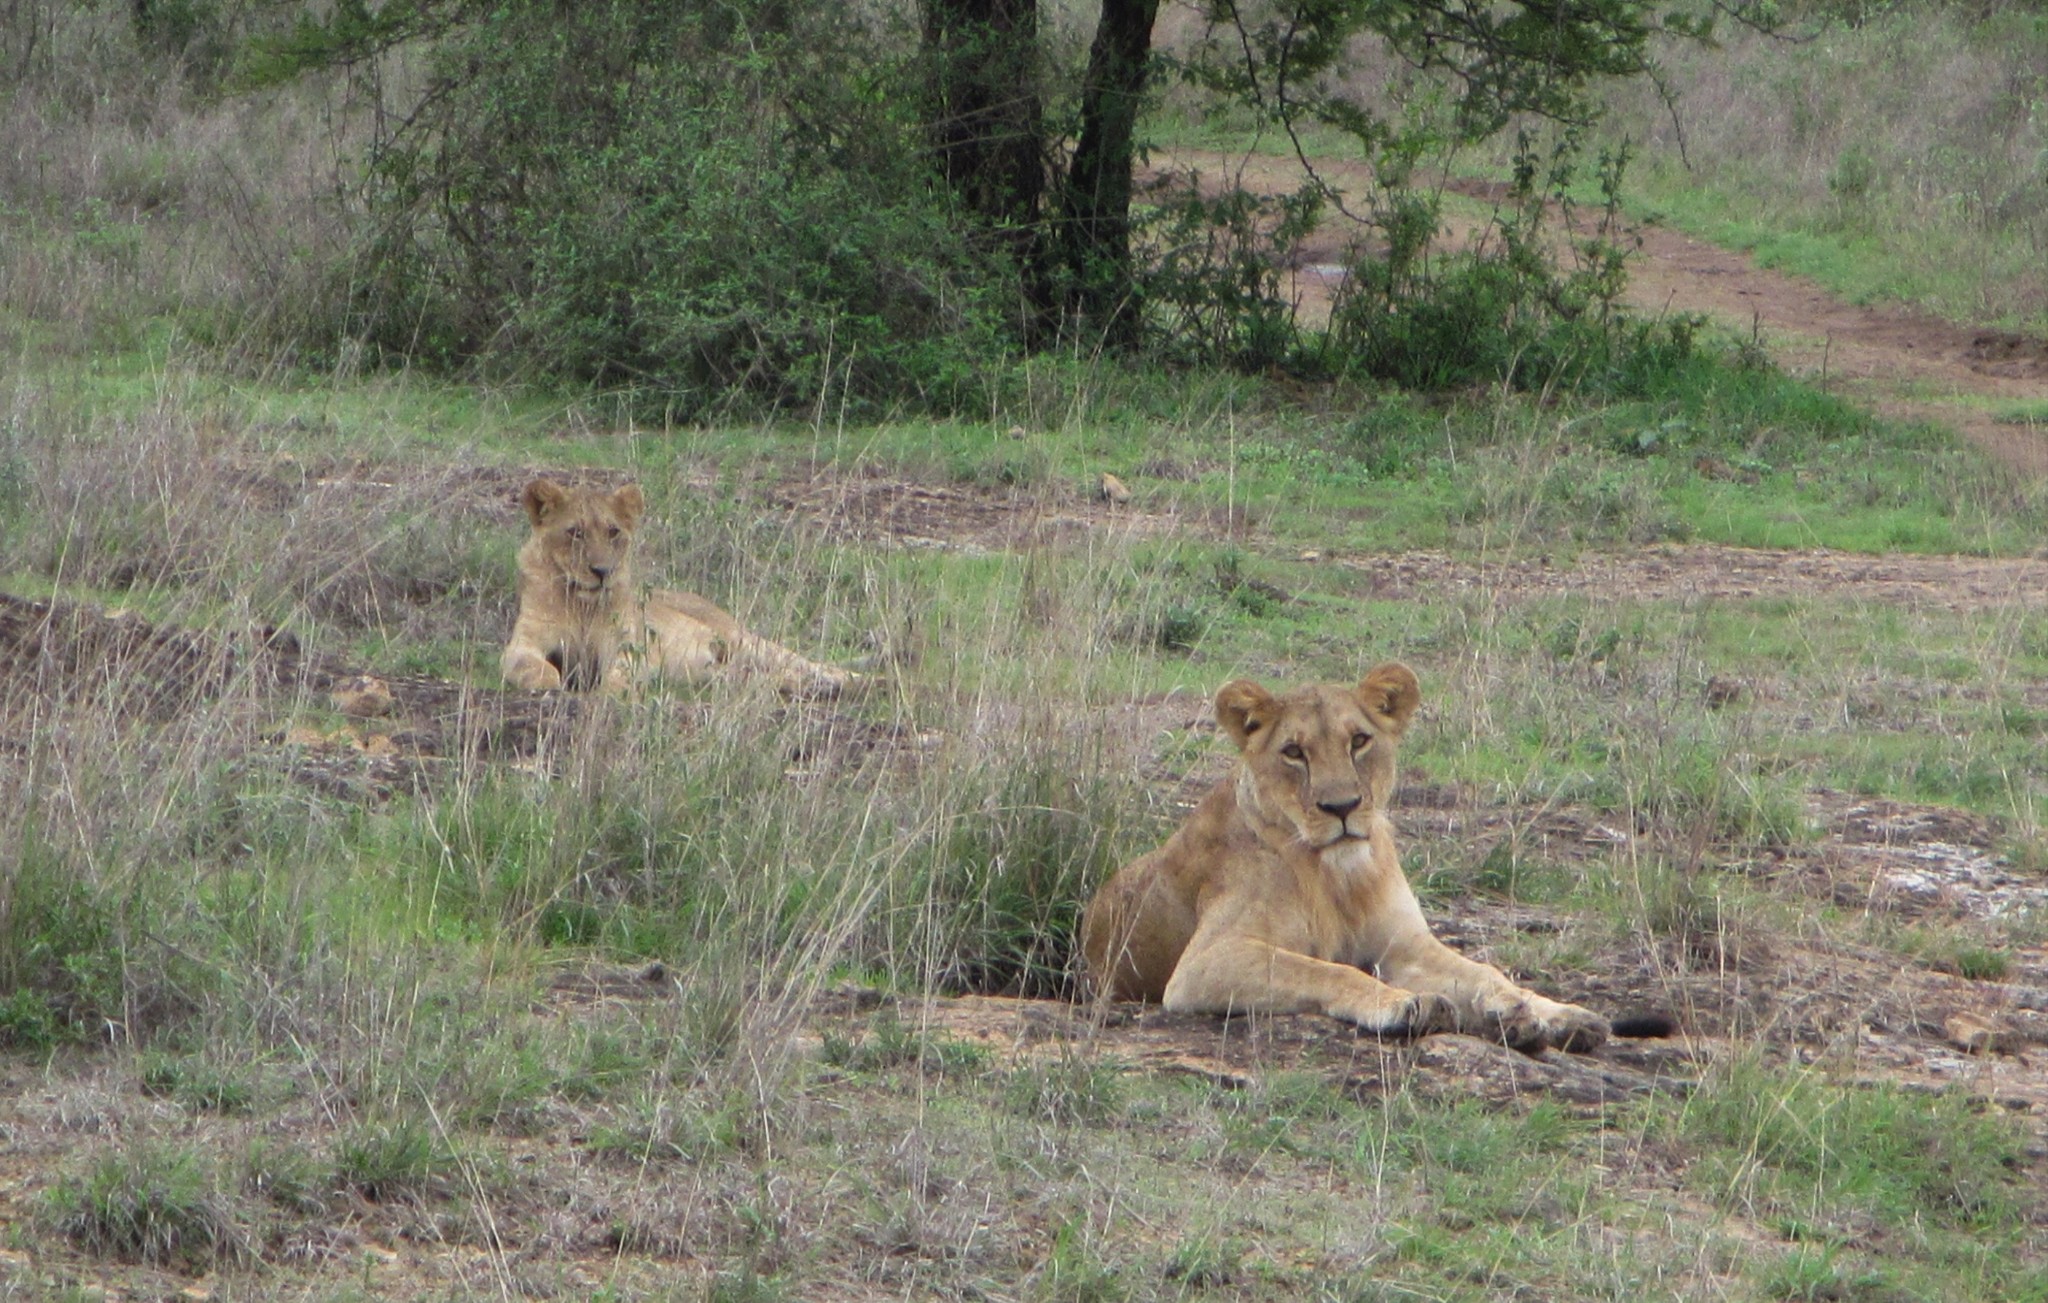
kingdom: Animalia
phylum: Chordata
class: Mammalia
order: Carnivora
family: Felidae
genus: Panthera
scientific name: Panthera leo
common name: Lion
